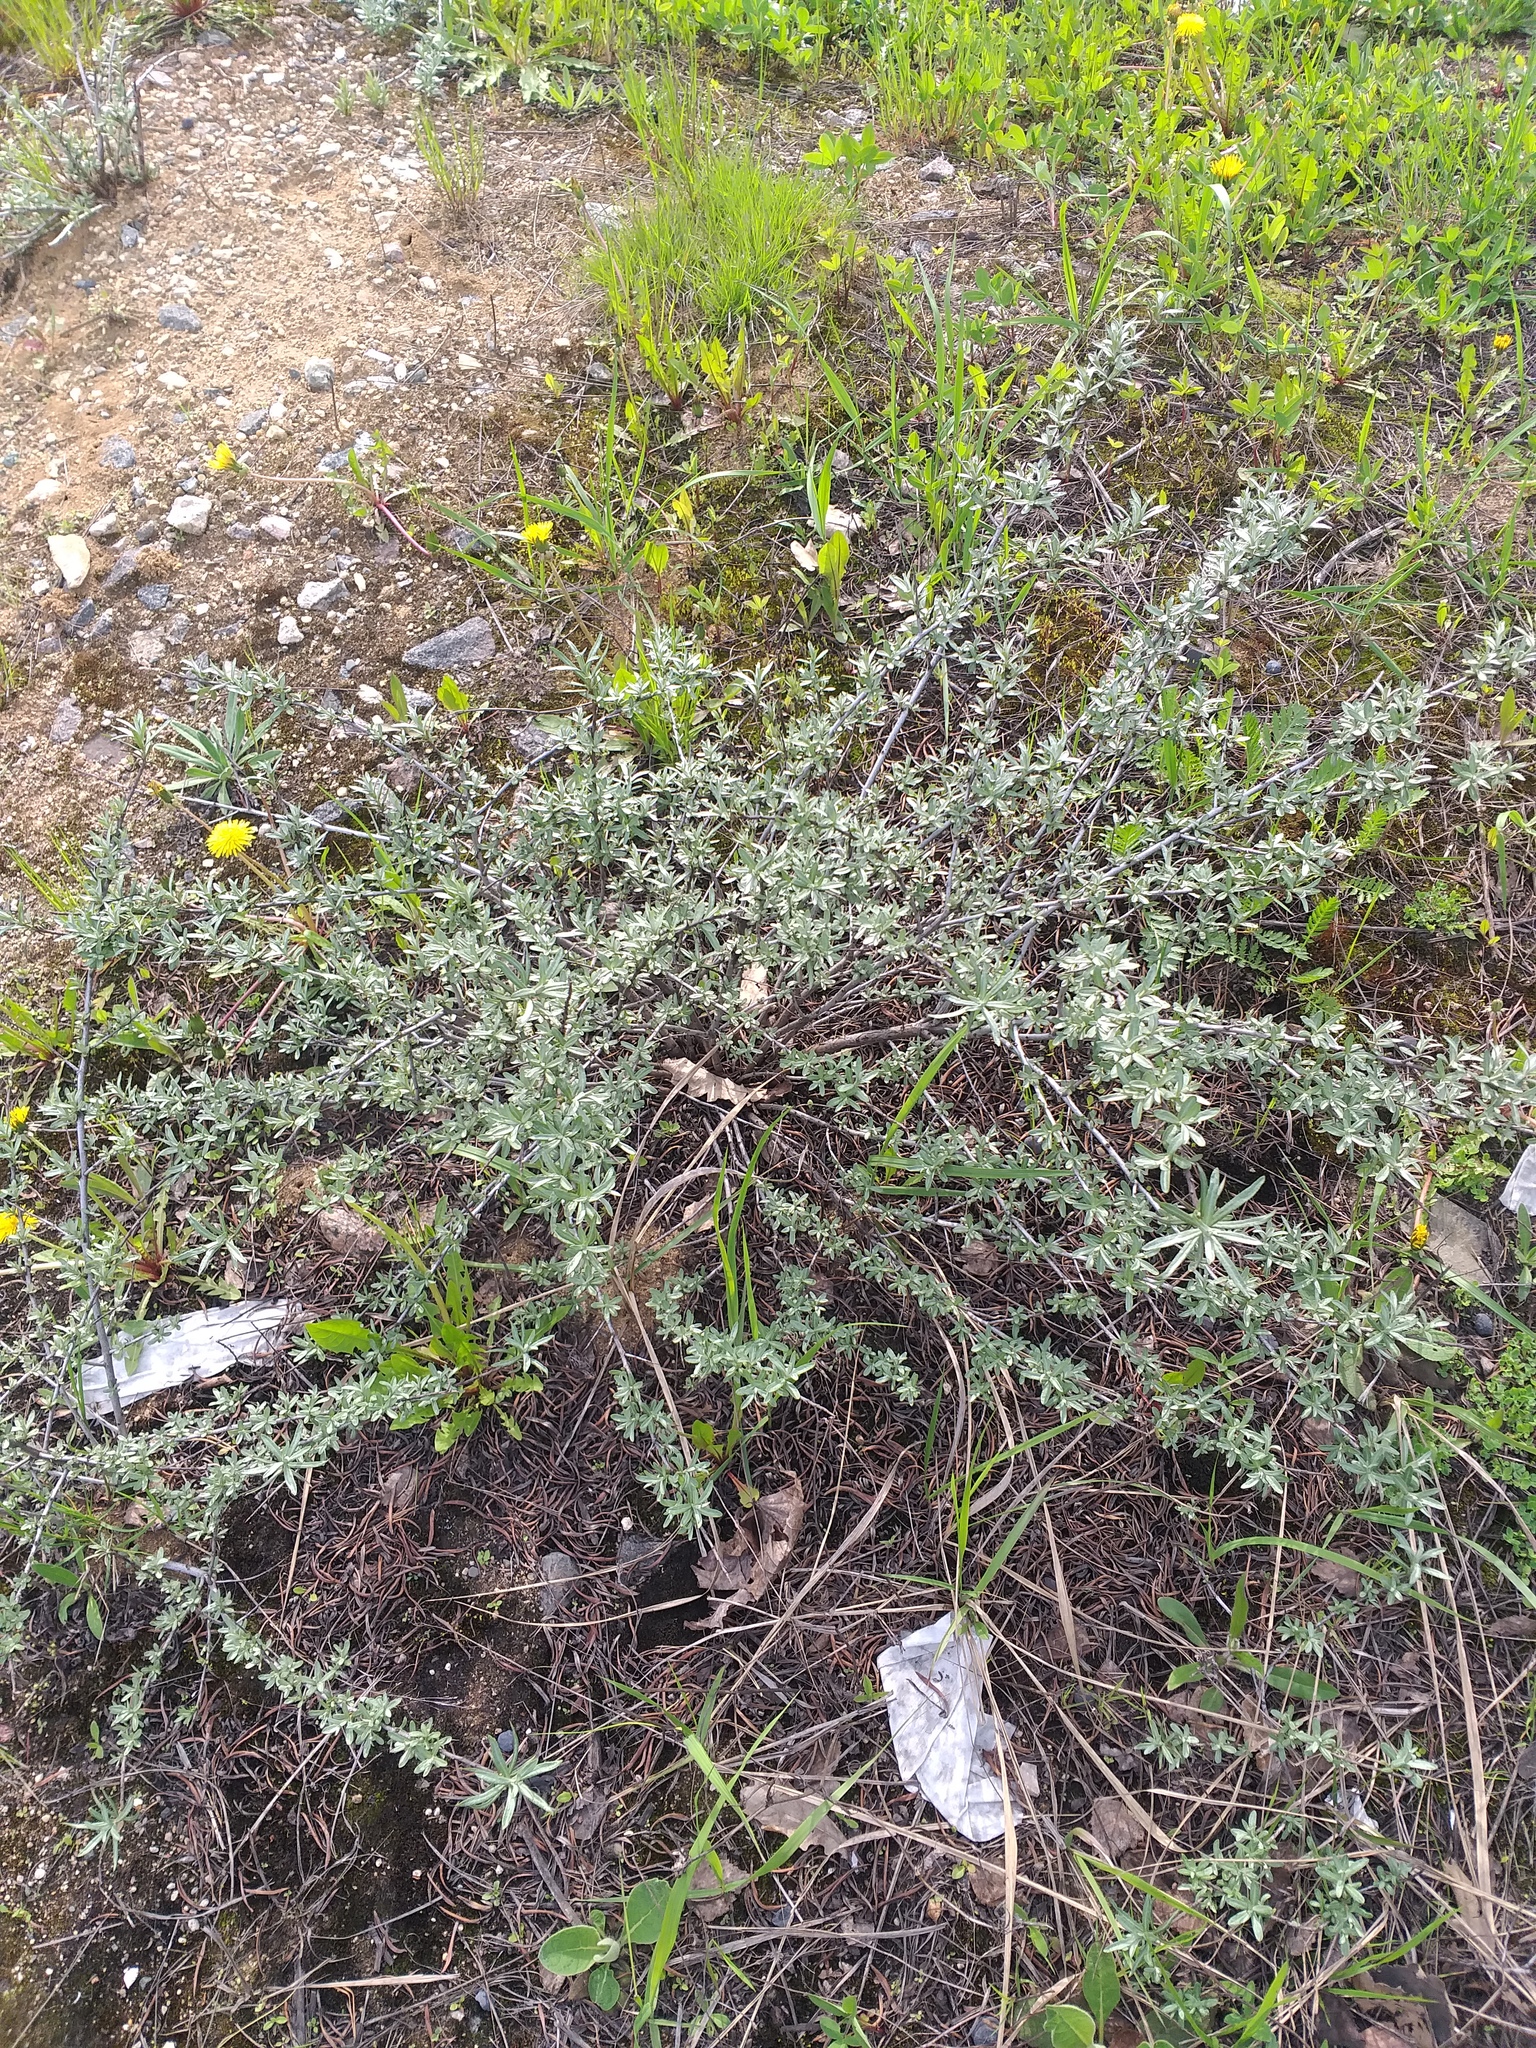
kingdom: Plantae
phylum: Tracheophyta
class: Magnoliopsida
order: Rosales
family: Elaeagnaceae
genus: Hippophae
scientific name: Hippophae rhamnoides
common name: Sea-buckthorn
